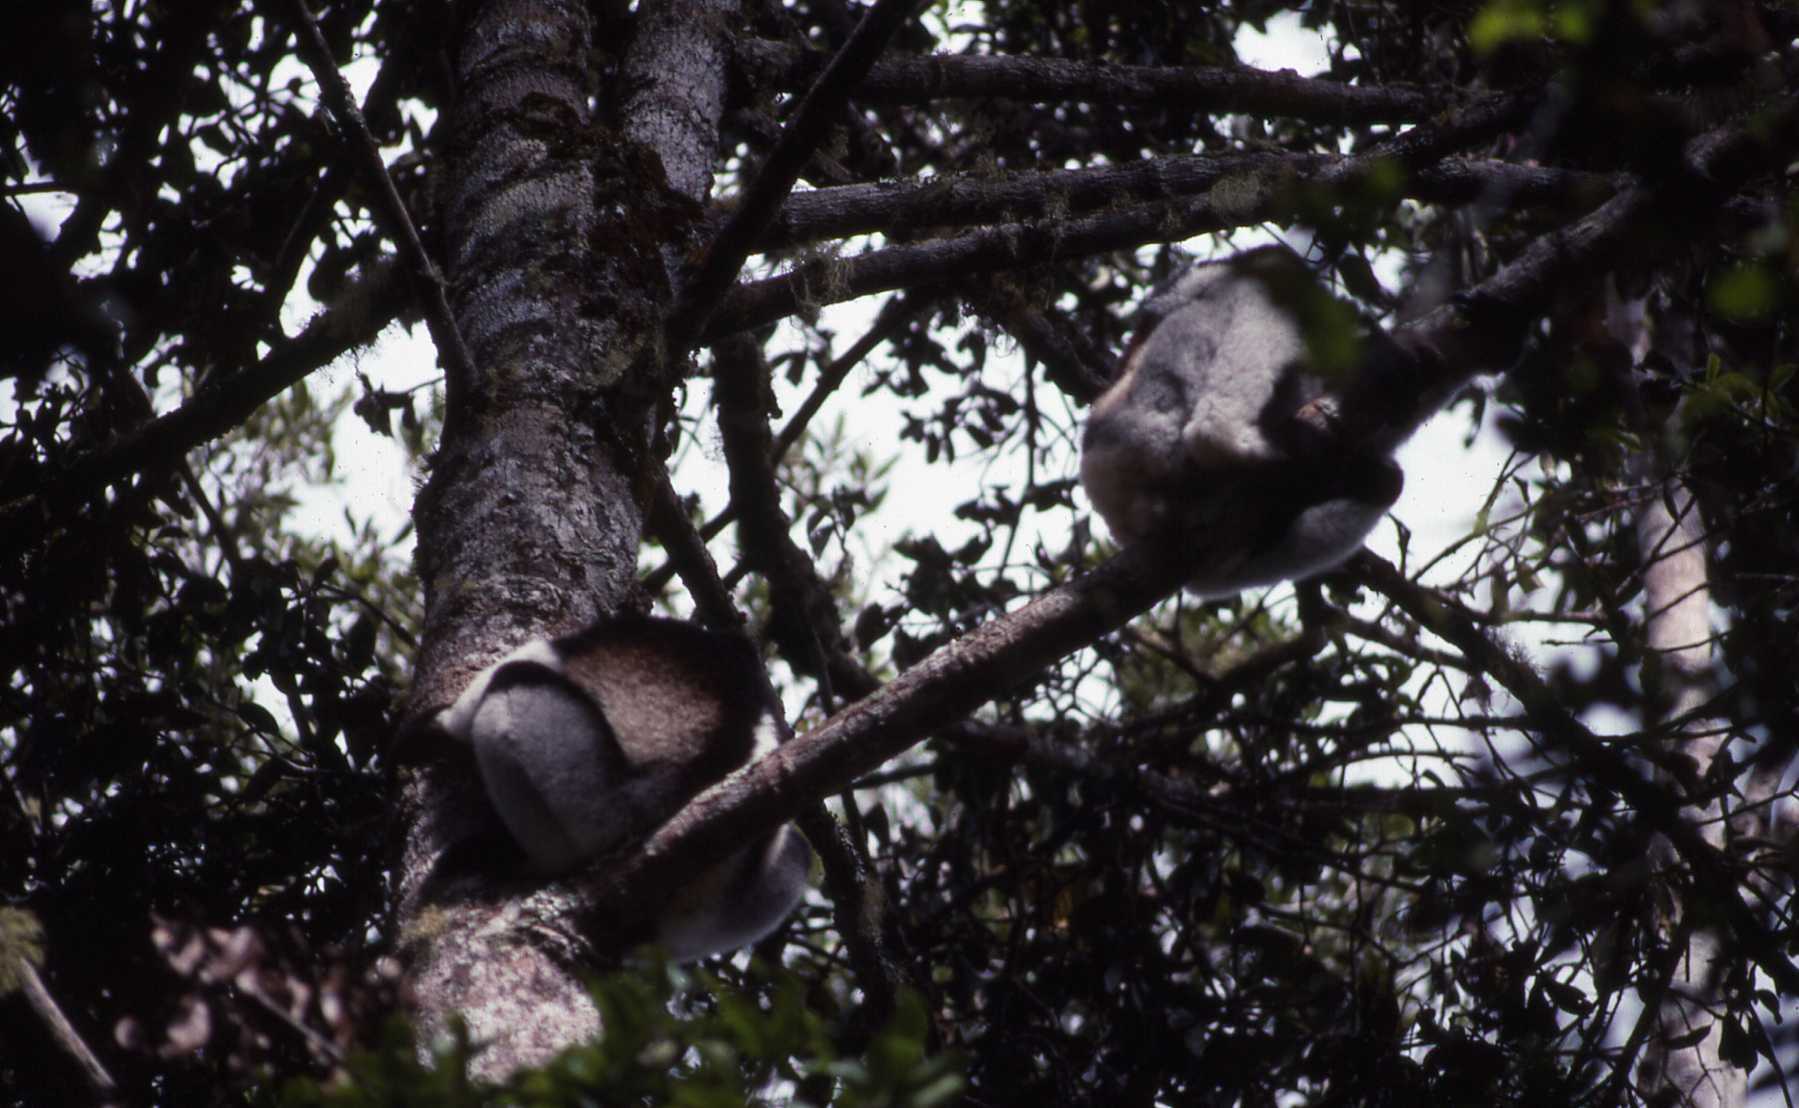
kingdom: Animalia
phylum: Chordata
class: Mammalia
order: Primates
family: Indriidae
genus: Indri
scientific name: Indri indri
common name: Indri
